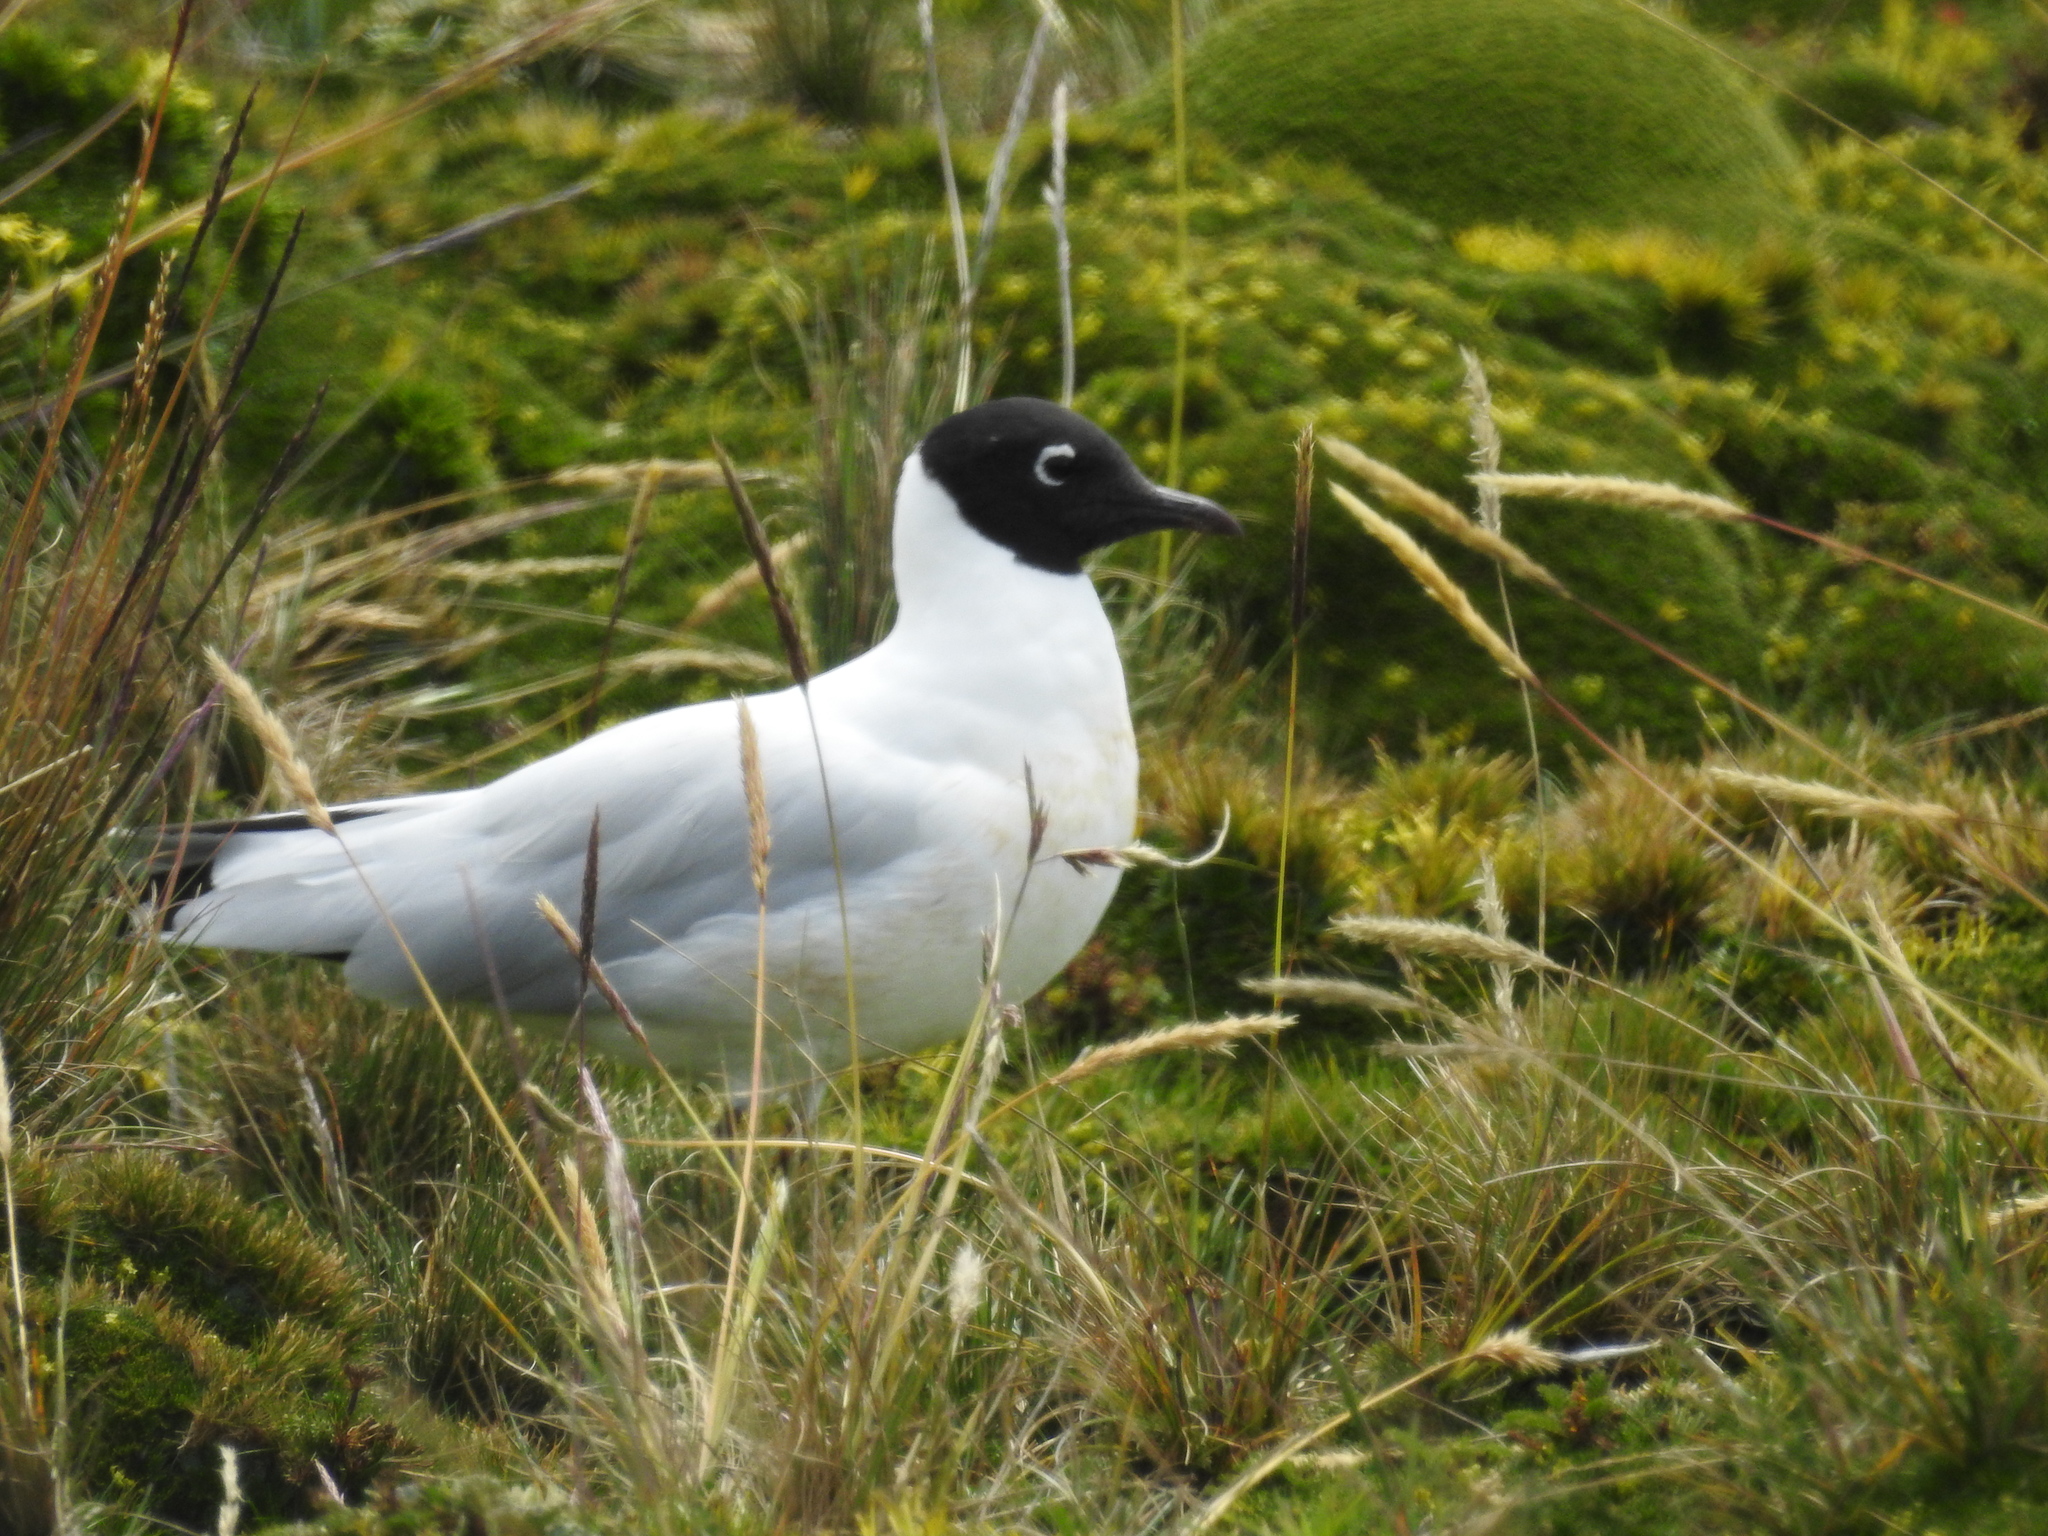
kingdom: Animalia
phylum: Chordata
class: Aves
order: Charadriiformes
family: Laridae
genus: Chroicocephalus
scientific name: Chroicocephalus serranus
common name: Andean gull
